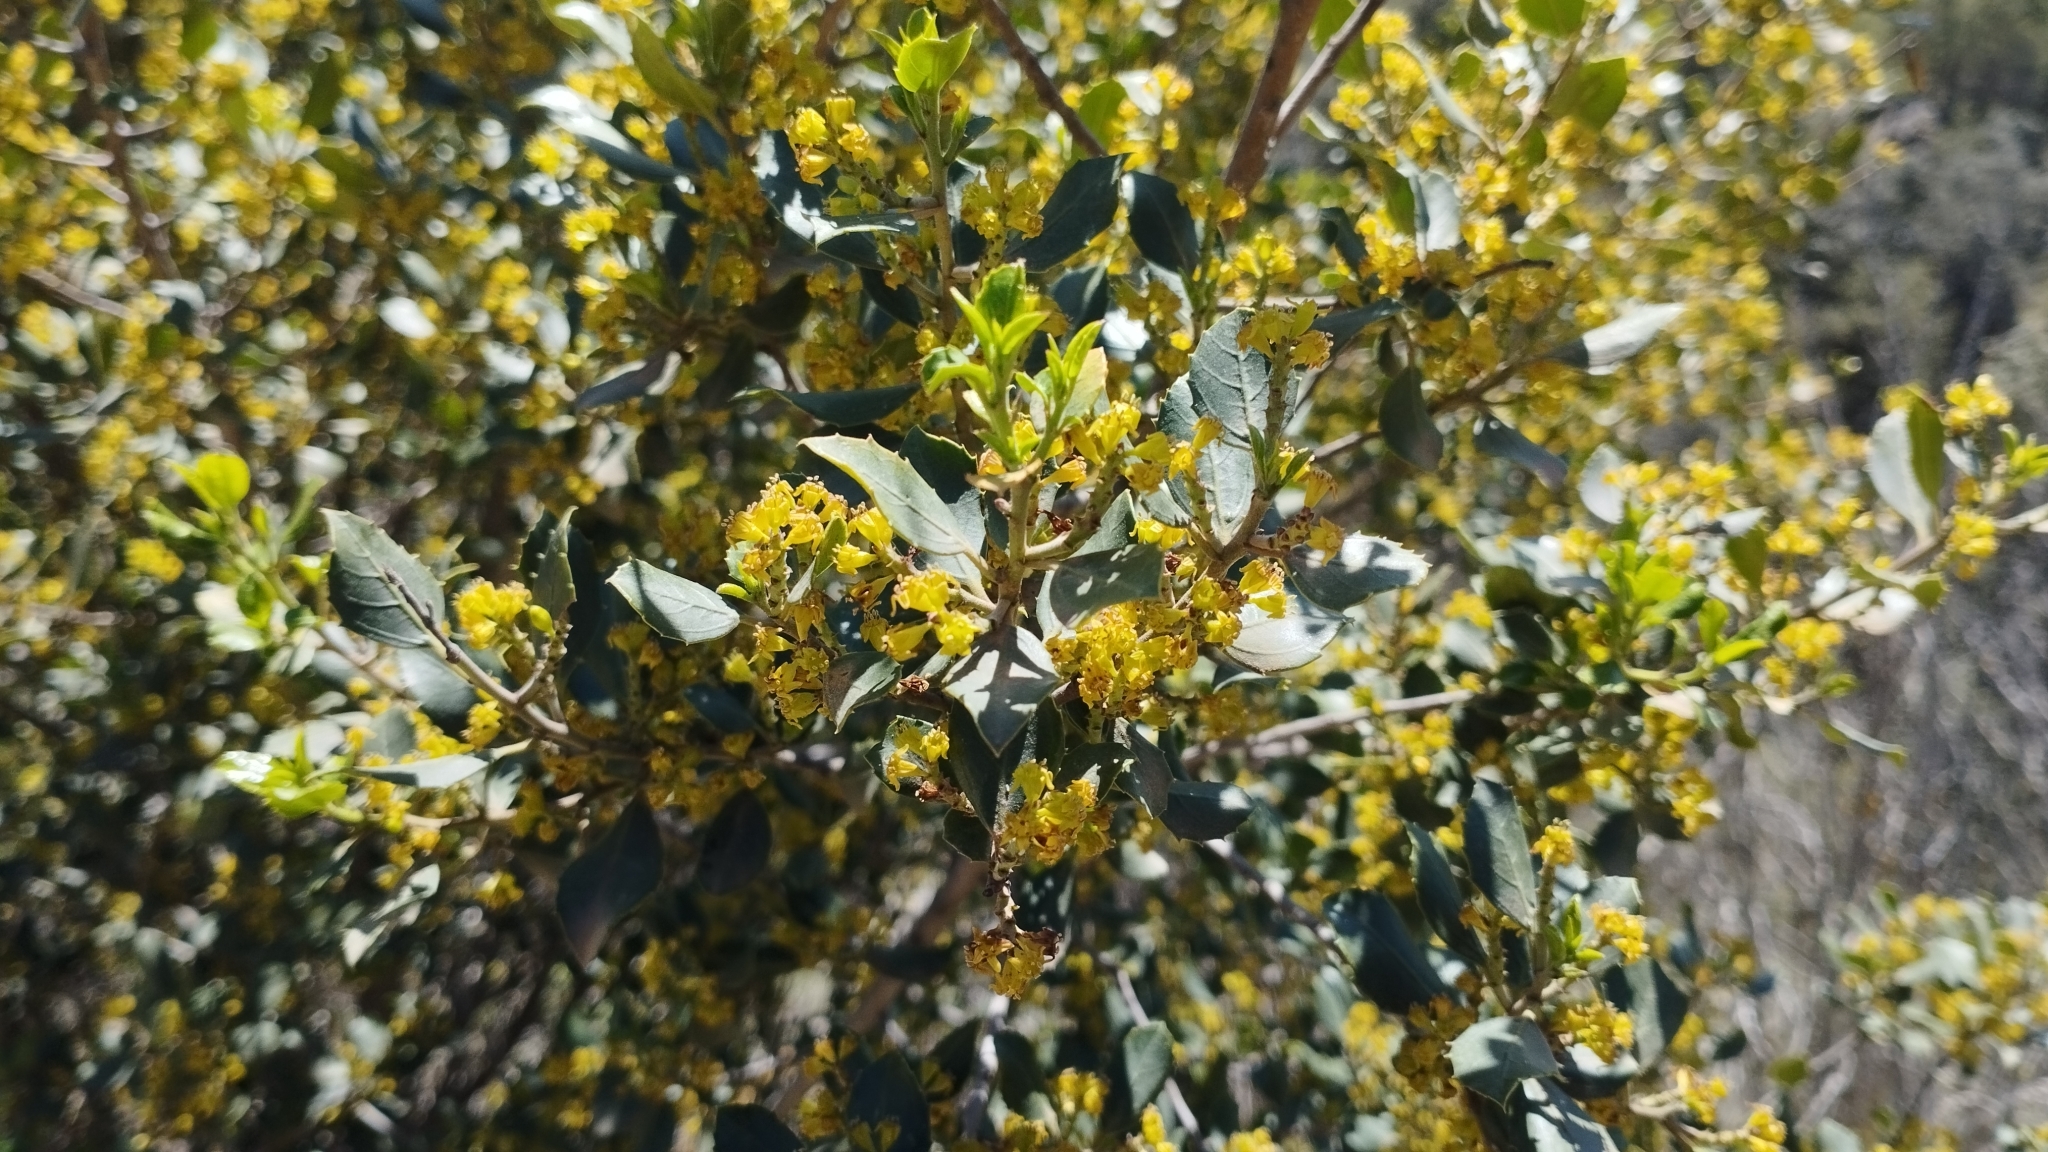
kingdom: Plantae
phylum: Tracheophyta
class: Magnoliopsida
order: Rosales
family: Rhamnaceae
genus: Rhamnus
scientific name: Rhamnus alaternus
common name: Mediterranean buckthorn
